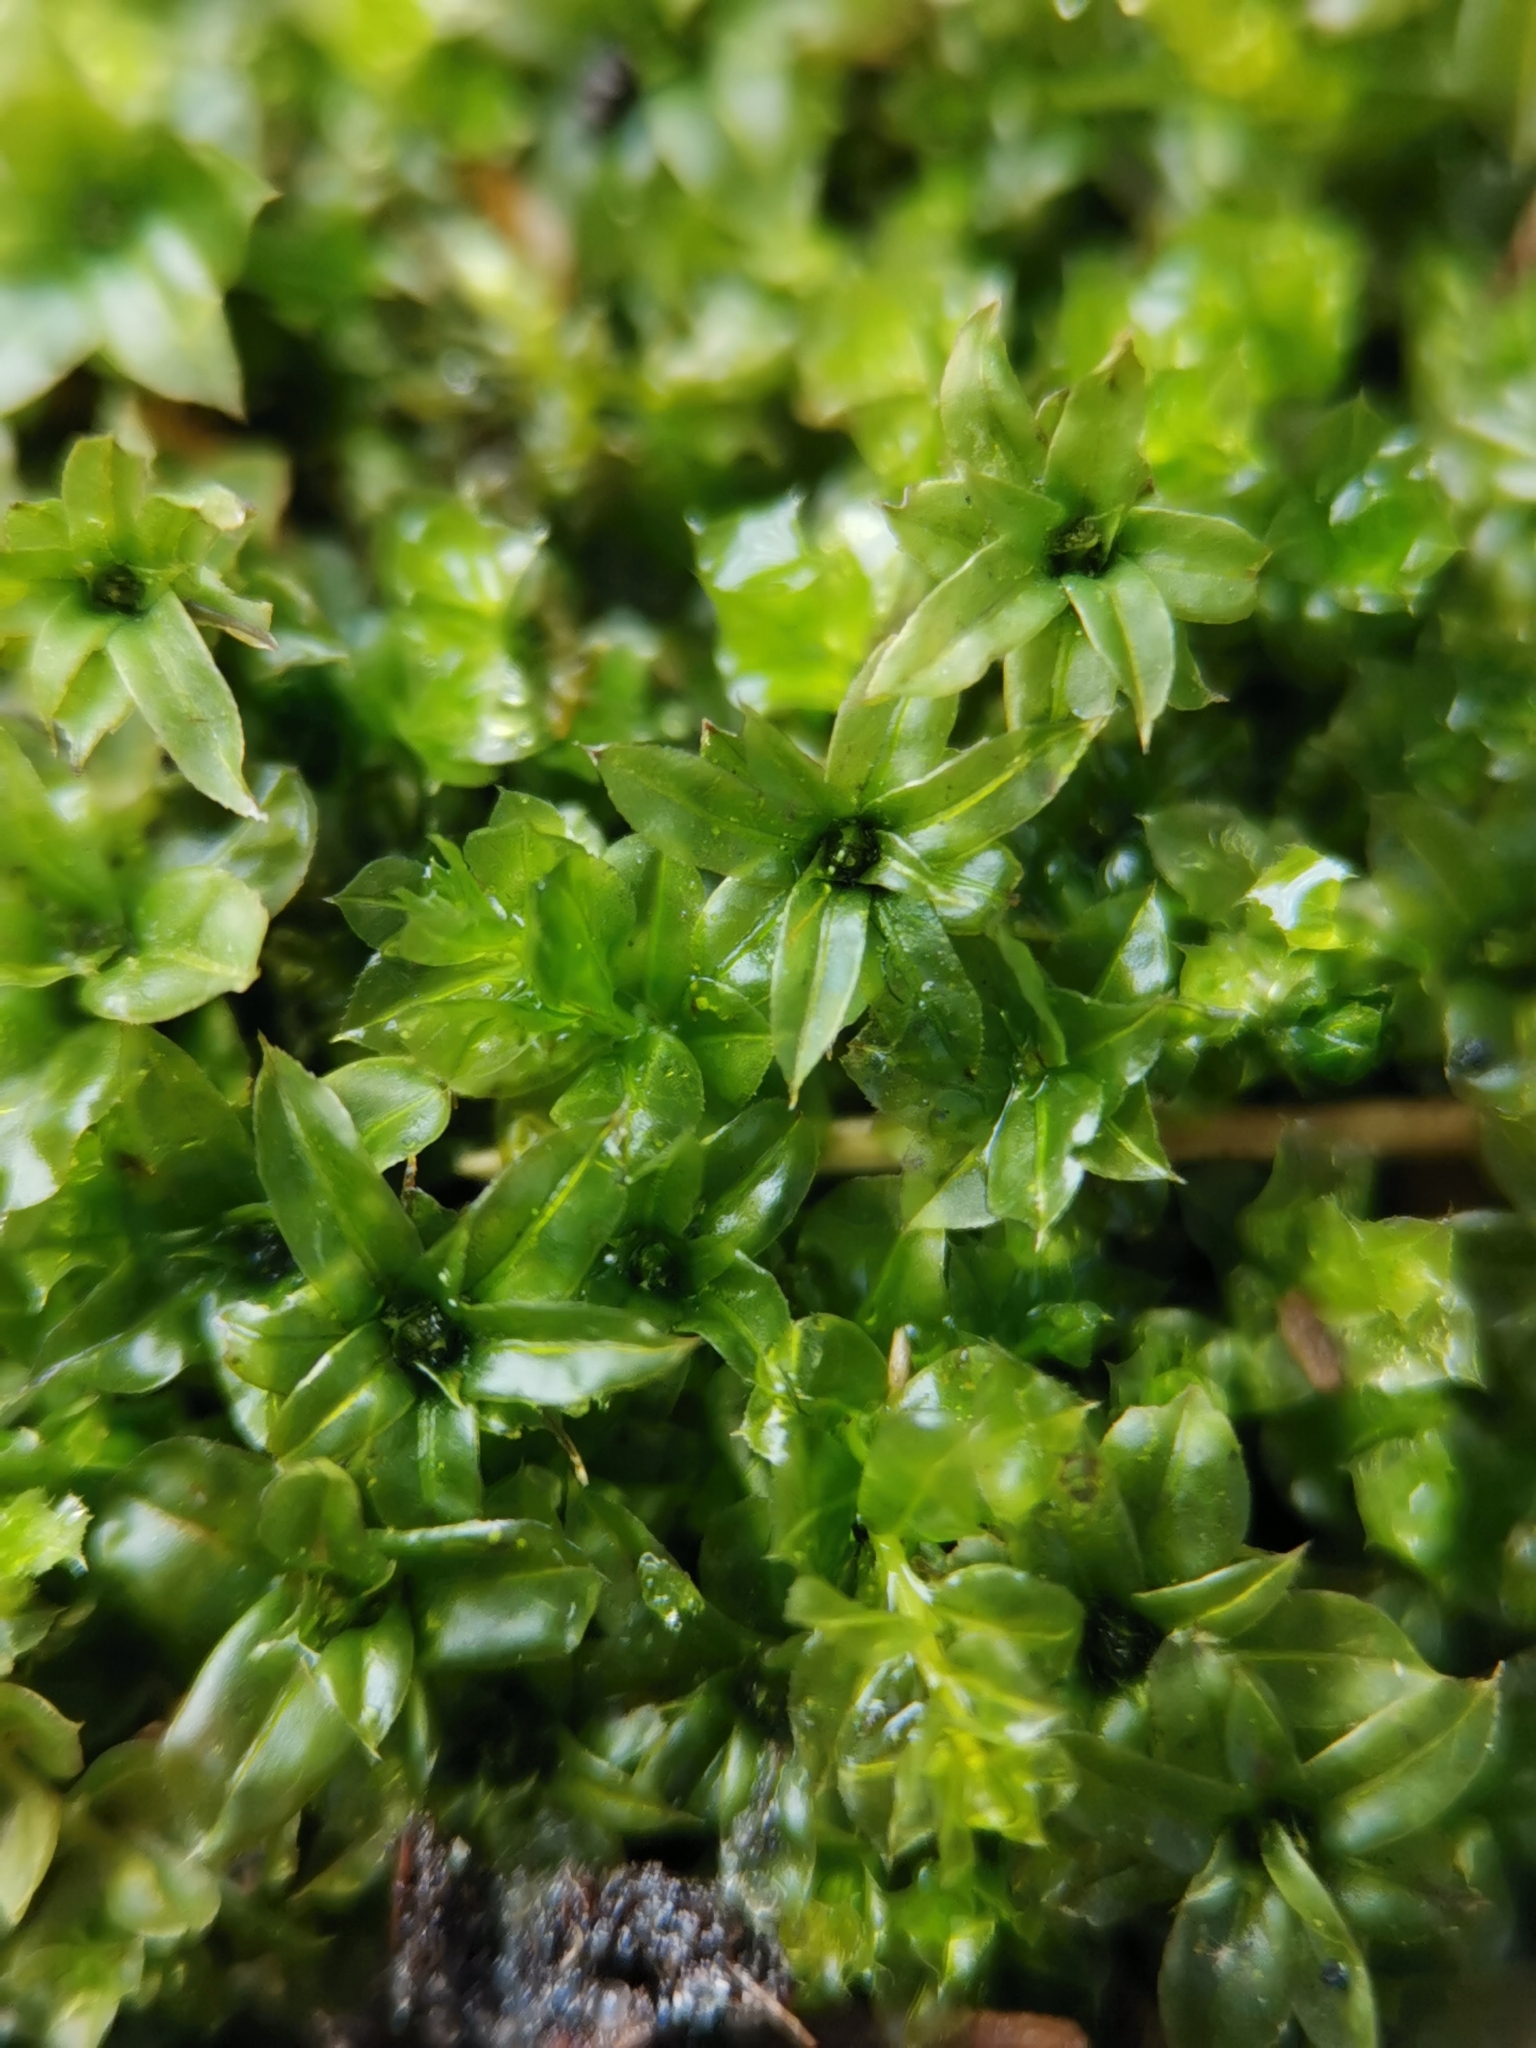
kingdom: Plantae
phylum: Bryophyta
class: Bryopsida
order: Bryales
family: Mniaceae
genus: Plagiomnium
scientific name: Plagiomnium cuspidatum
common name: Woodsy leafy moss
